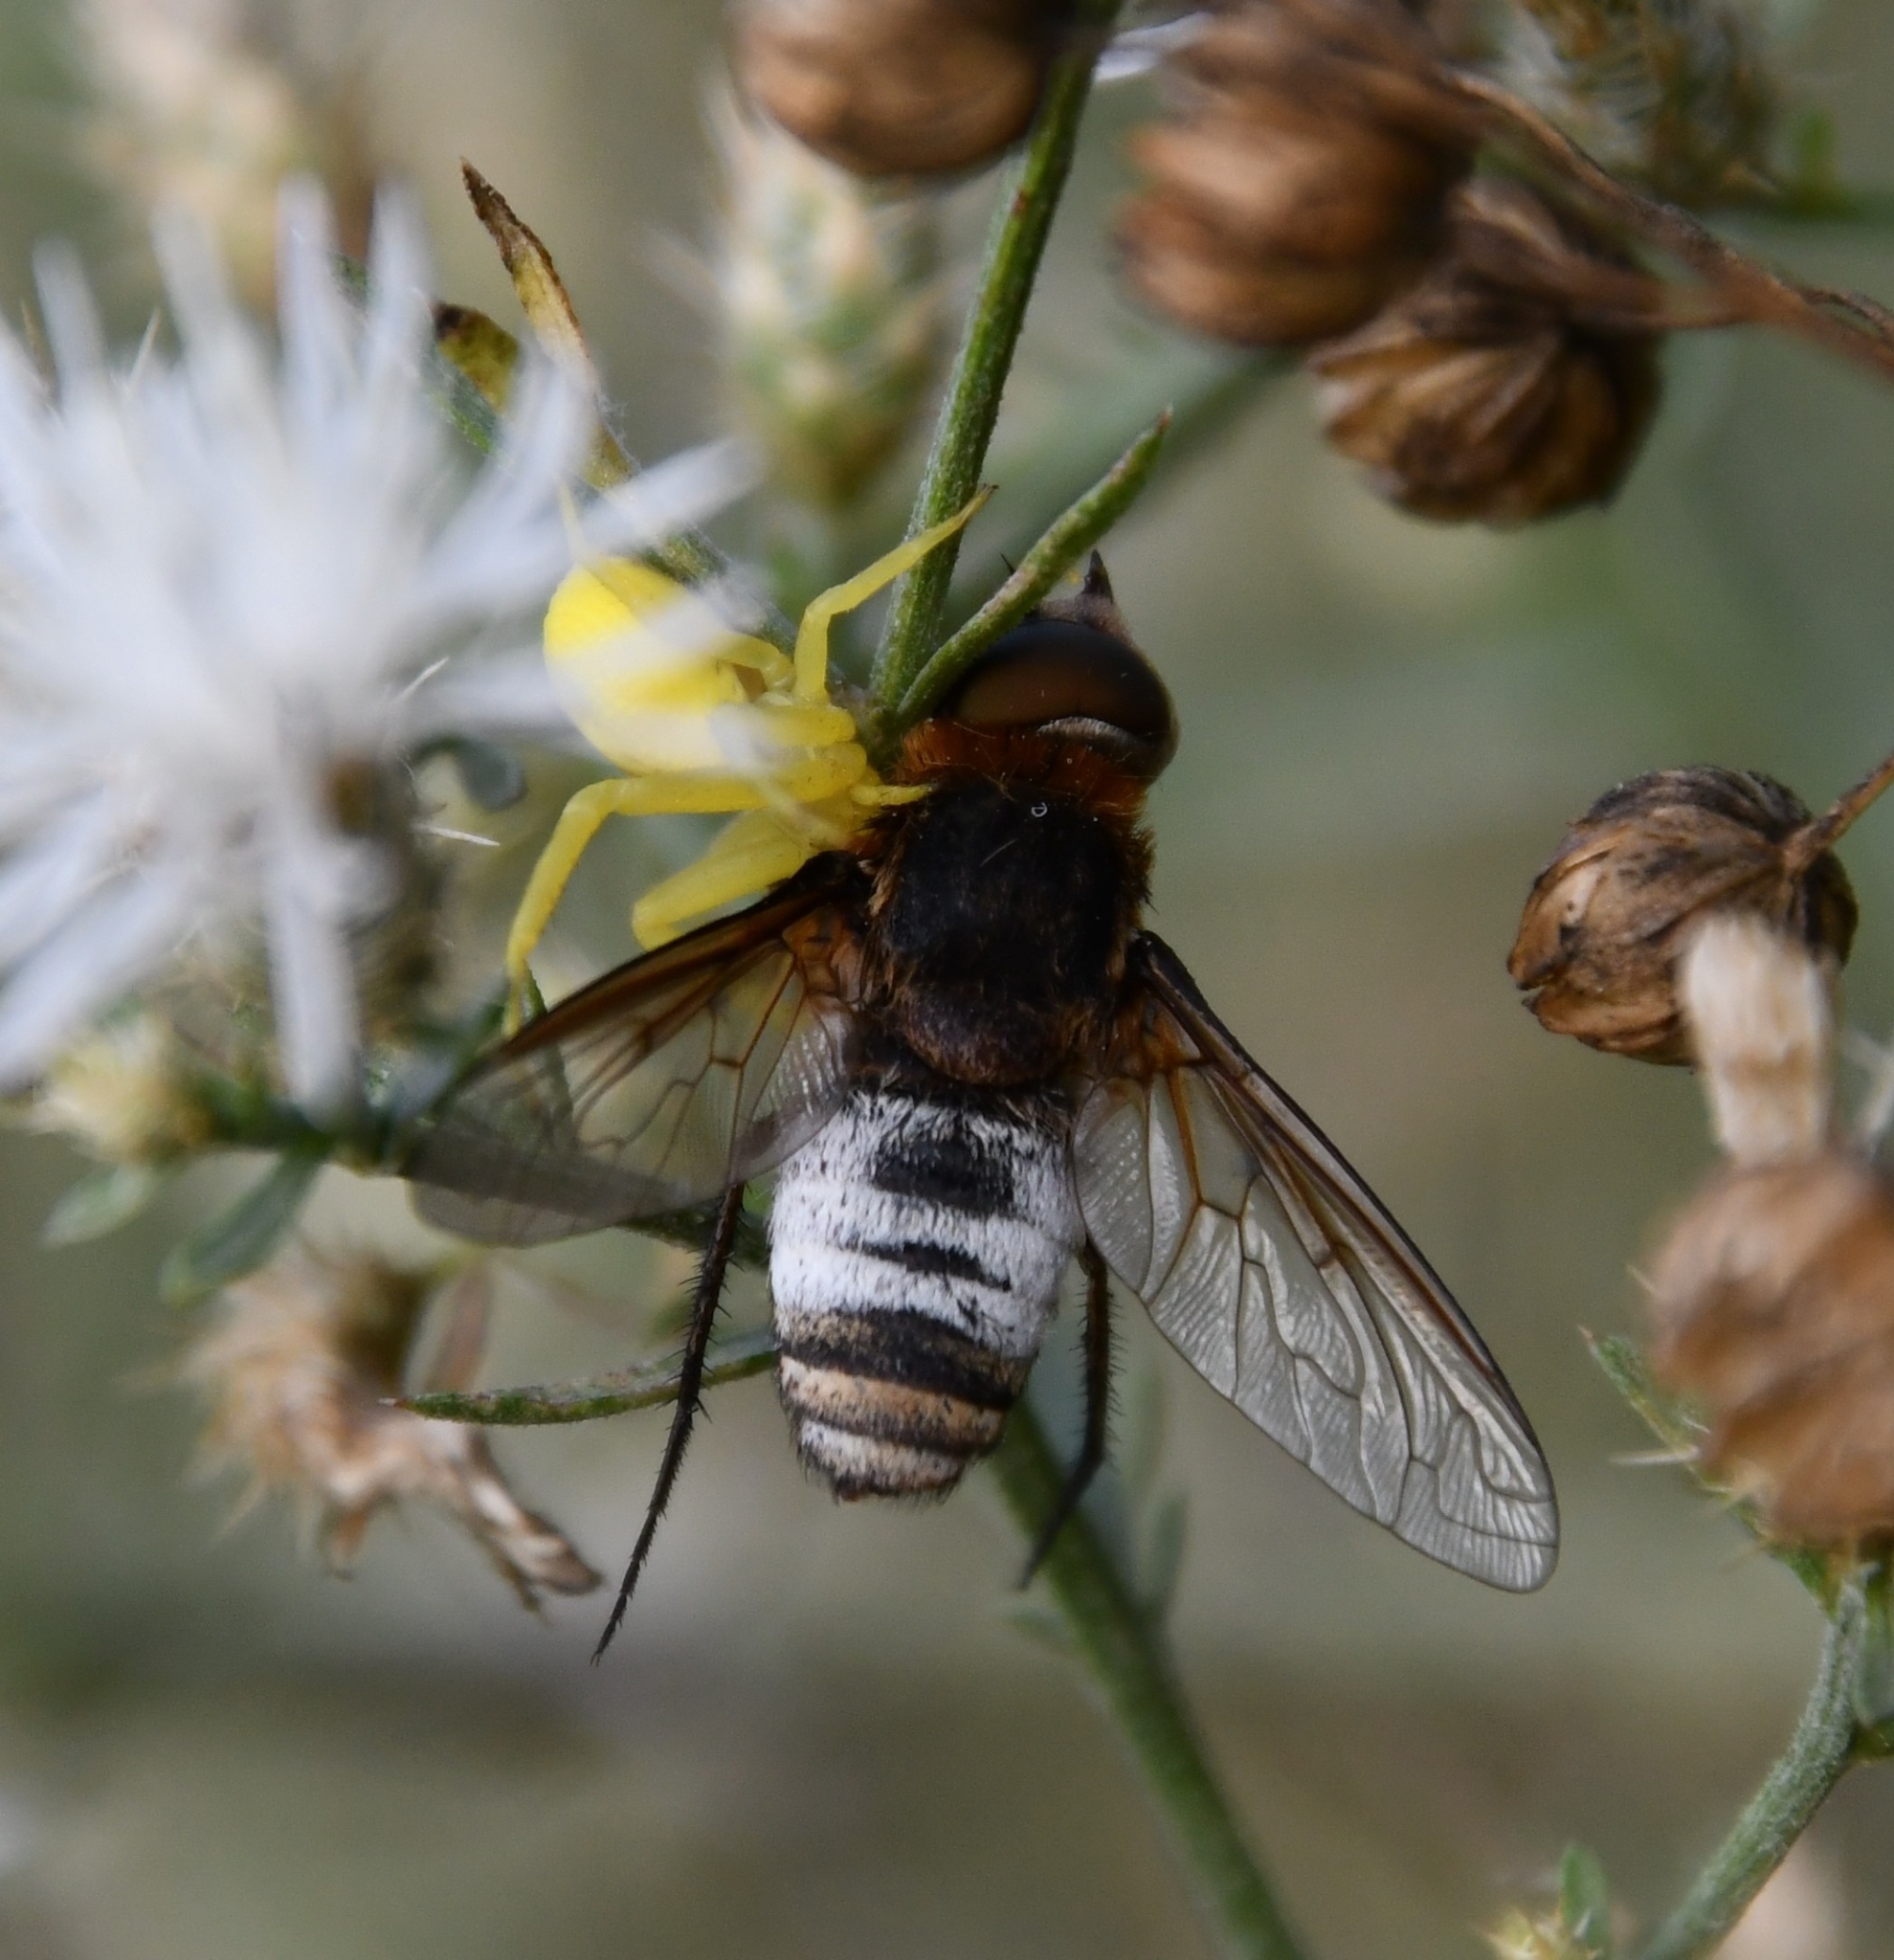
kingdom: Animalia
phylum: Arthropoda
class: Insecta
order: Diptera
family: Bombyliidae
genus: Defilippia
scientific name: Defilippia minos
